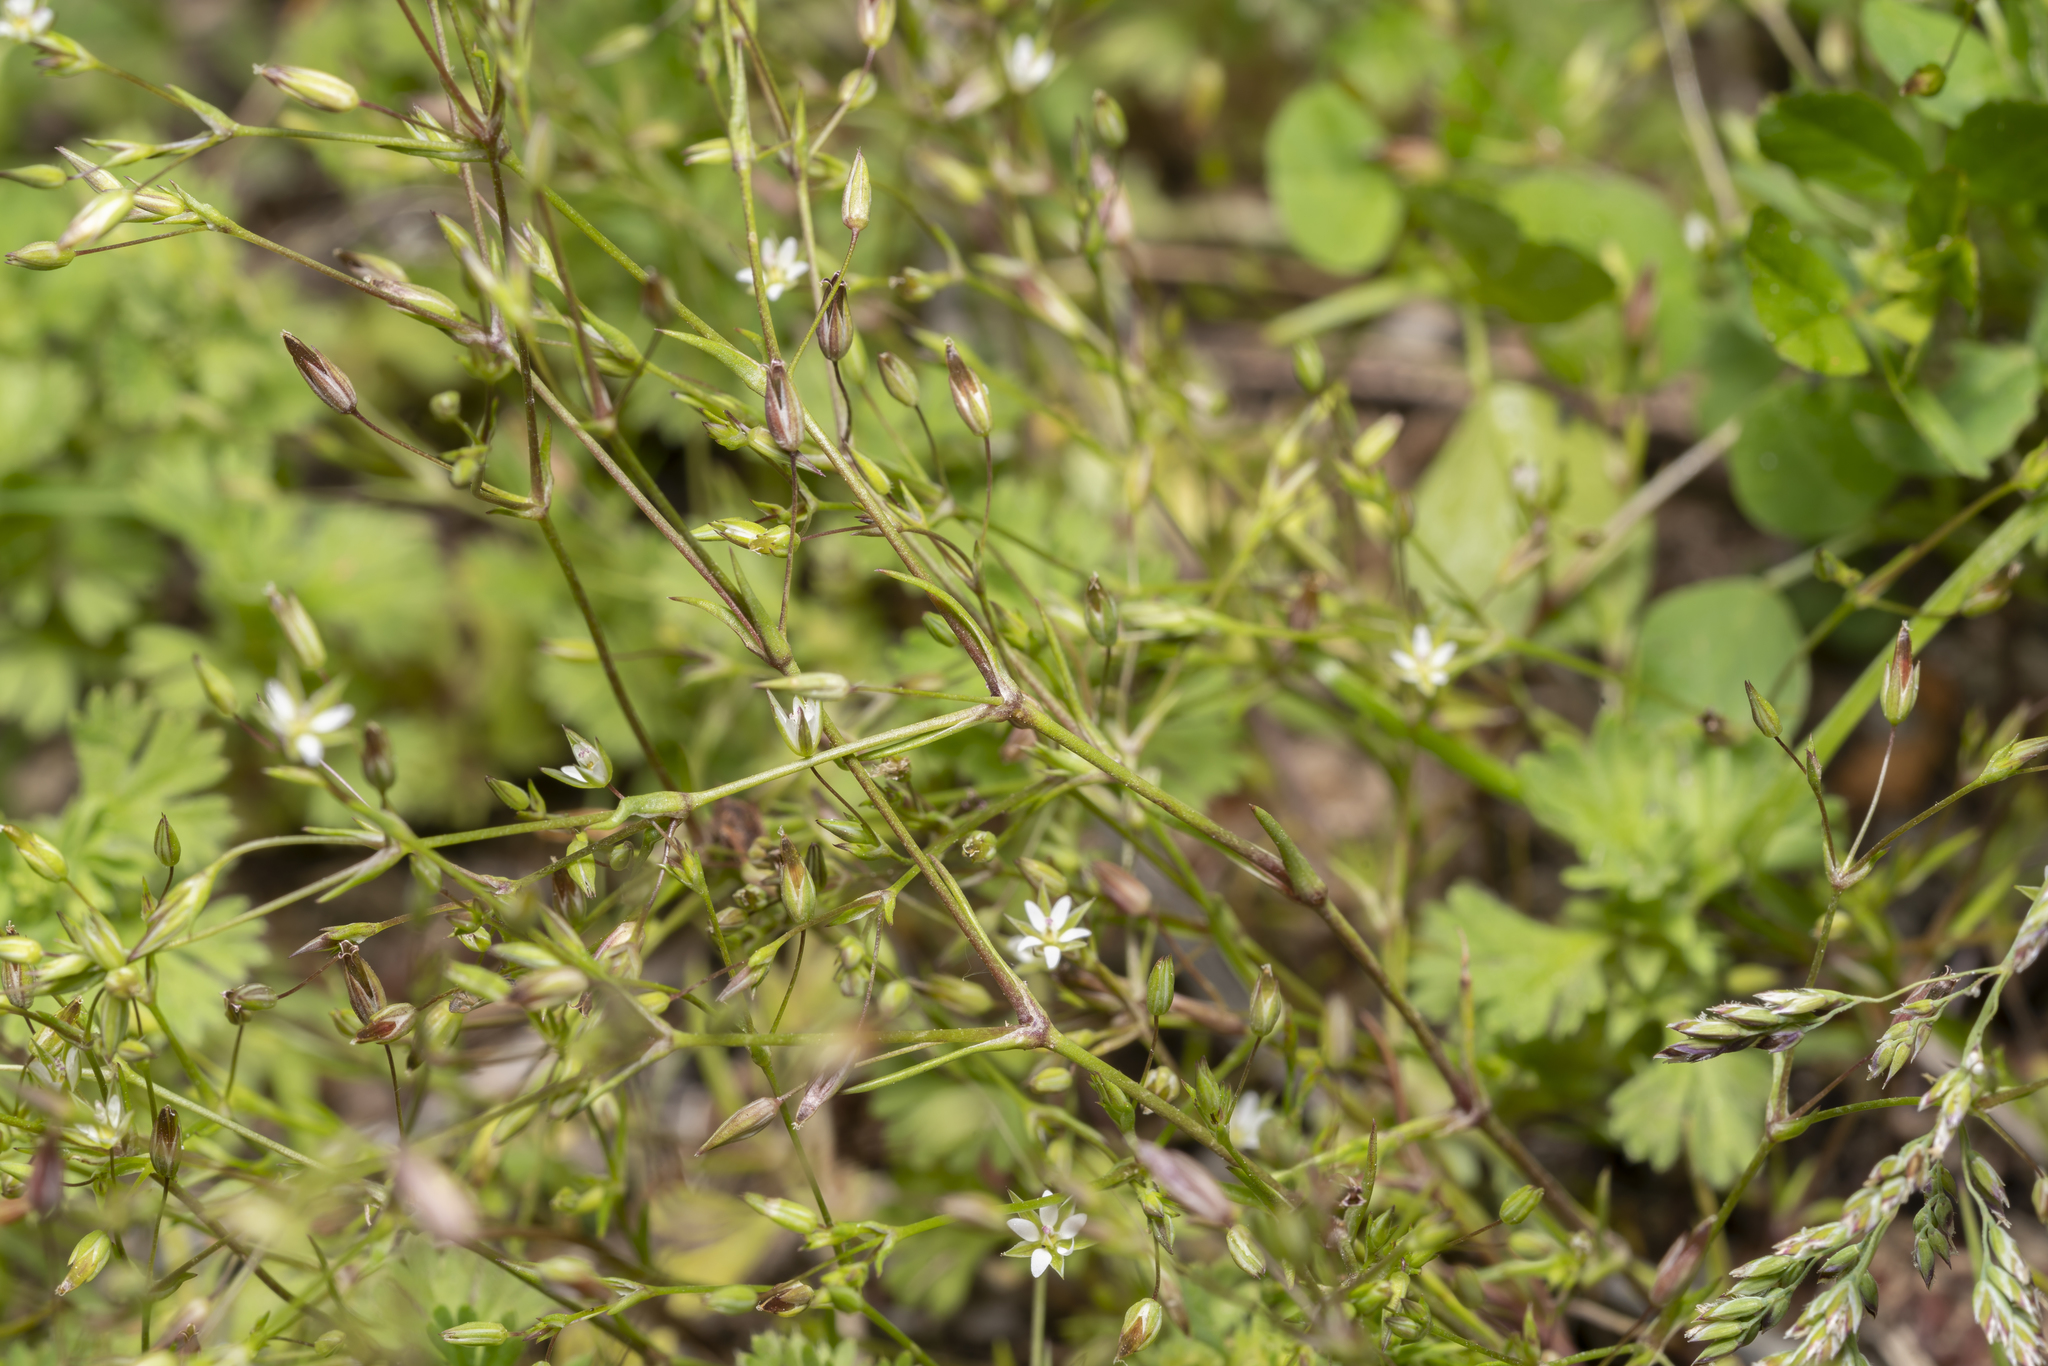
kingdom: Plantae
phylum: Tracheophyta
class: Magnoliopsida
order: Caryophyllales
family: Caryophyllaceae
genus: Sabulina
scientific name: Sabulina tenuifolia
